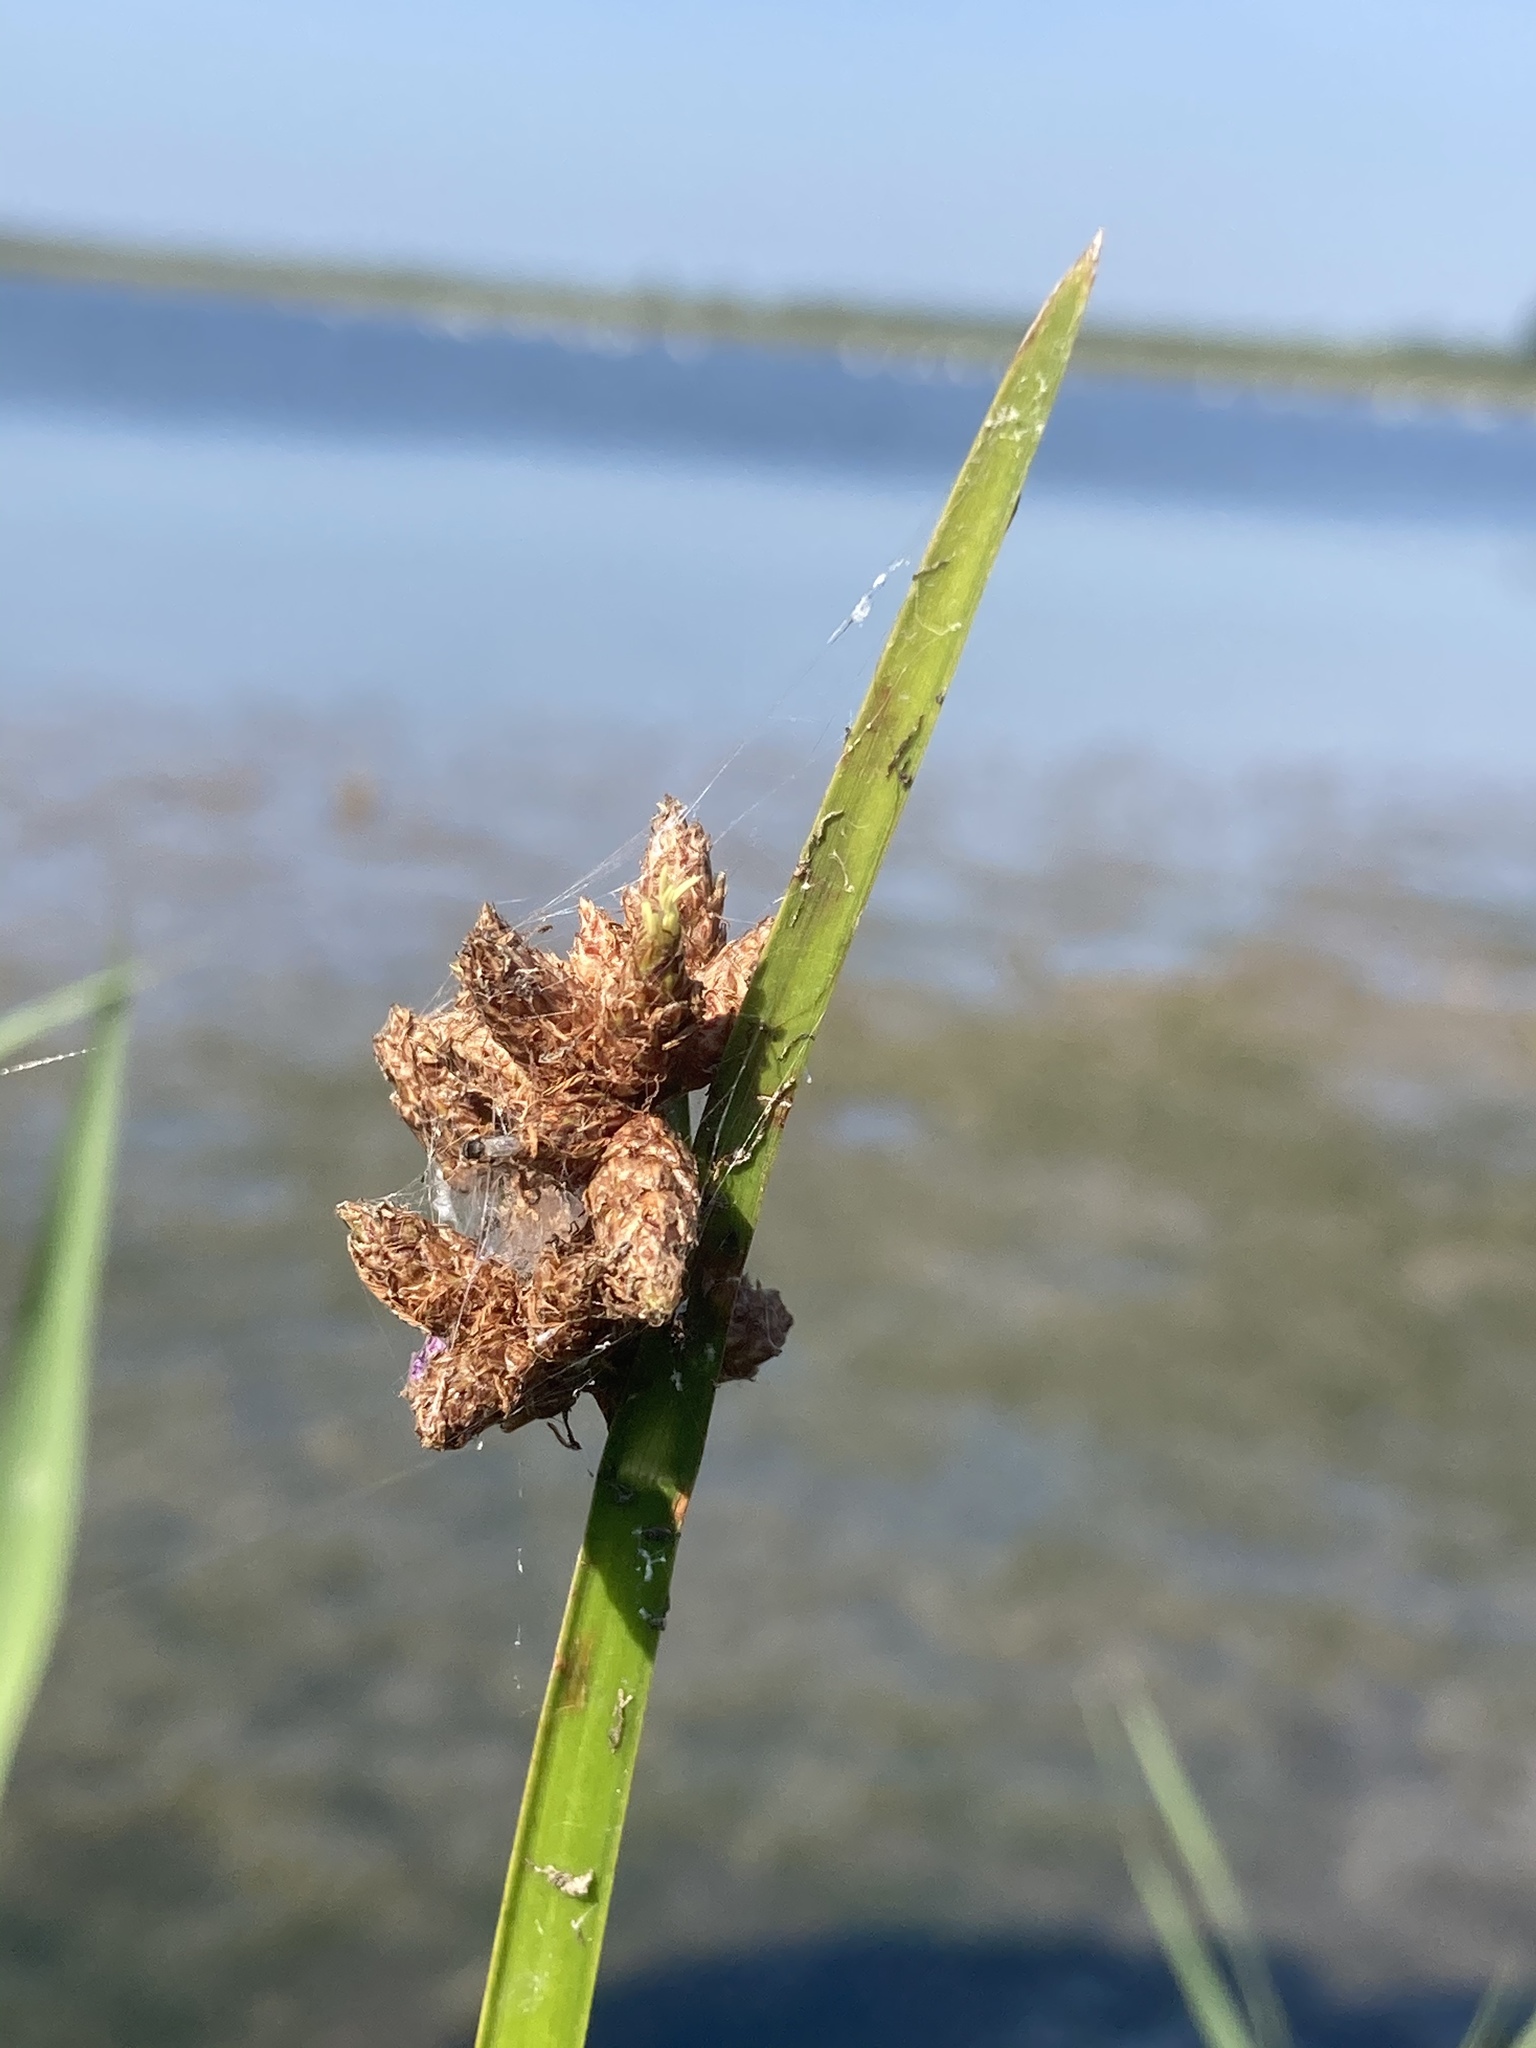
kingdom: Plantae
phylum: Tracheophyta
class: Liliopsida
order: Poales
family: Cyperaceae
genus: Schoenoplectus
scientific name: Schoenoplectus triqueter
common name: Triangular club-rush
